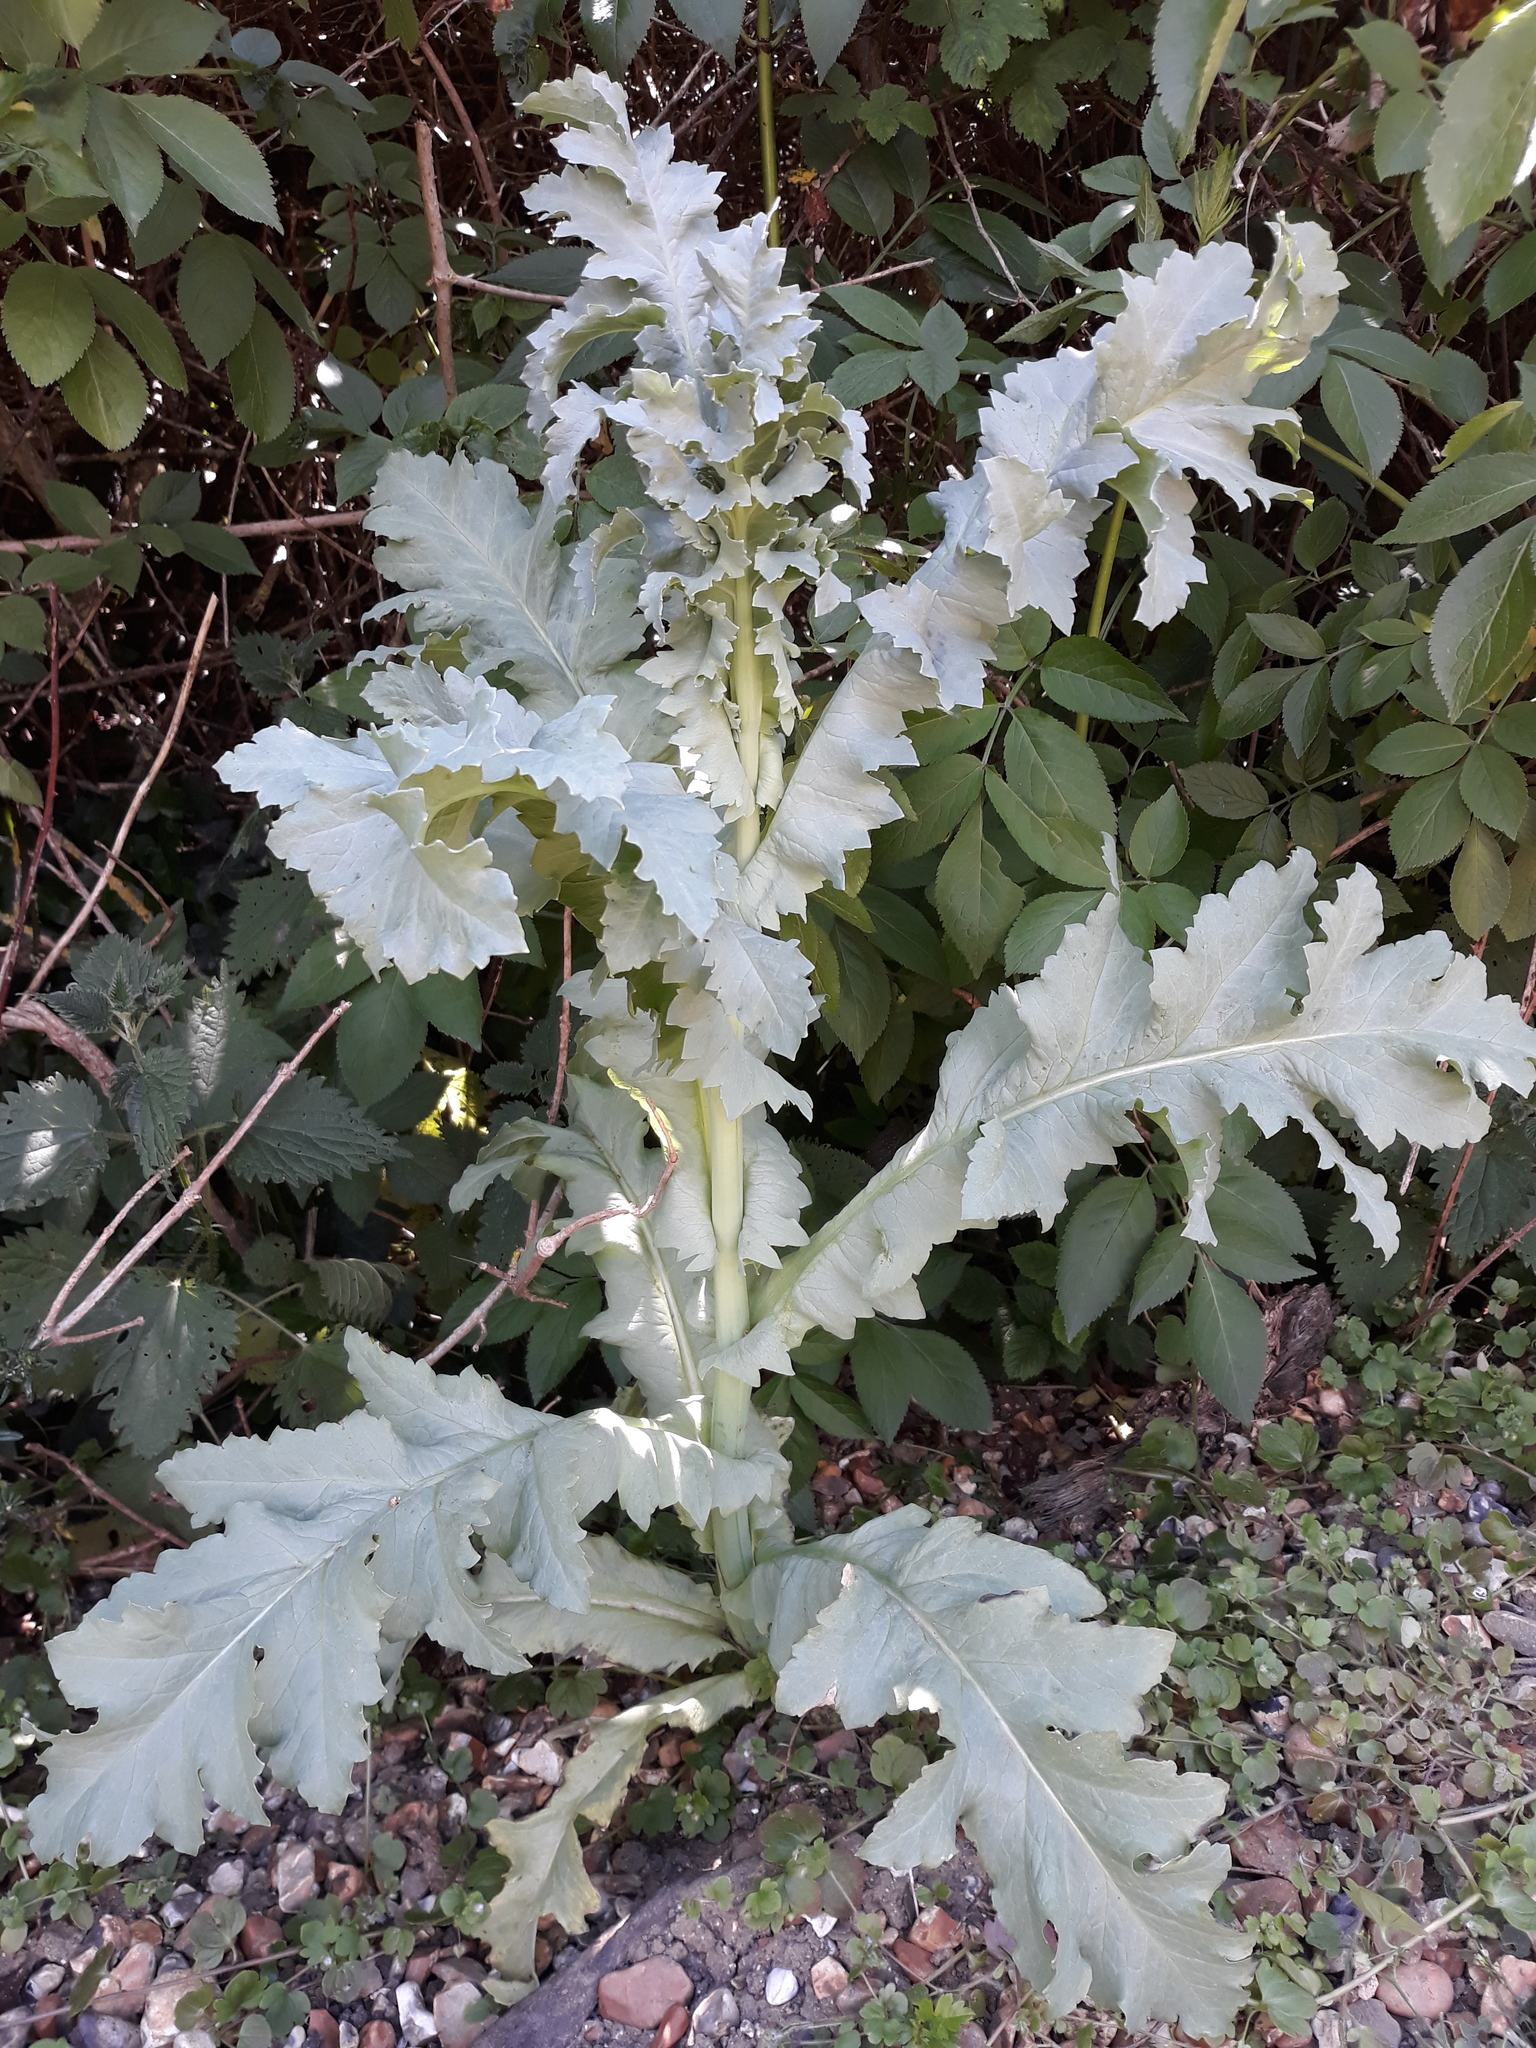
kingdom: Plantae
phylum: Tracheophyta
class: Magnoliopsida
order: Ranunculales
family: Papaveraceae
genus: Papaver
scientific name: Papaver somniferum
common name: Opium poppy
